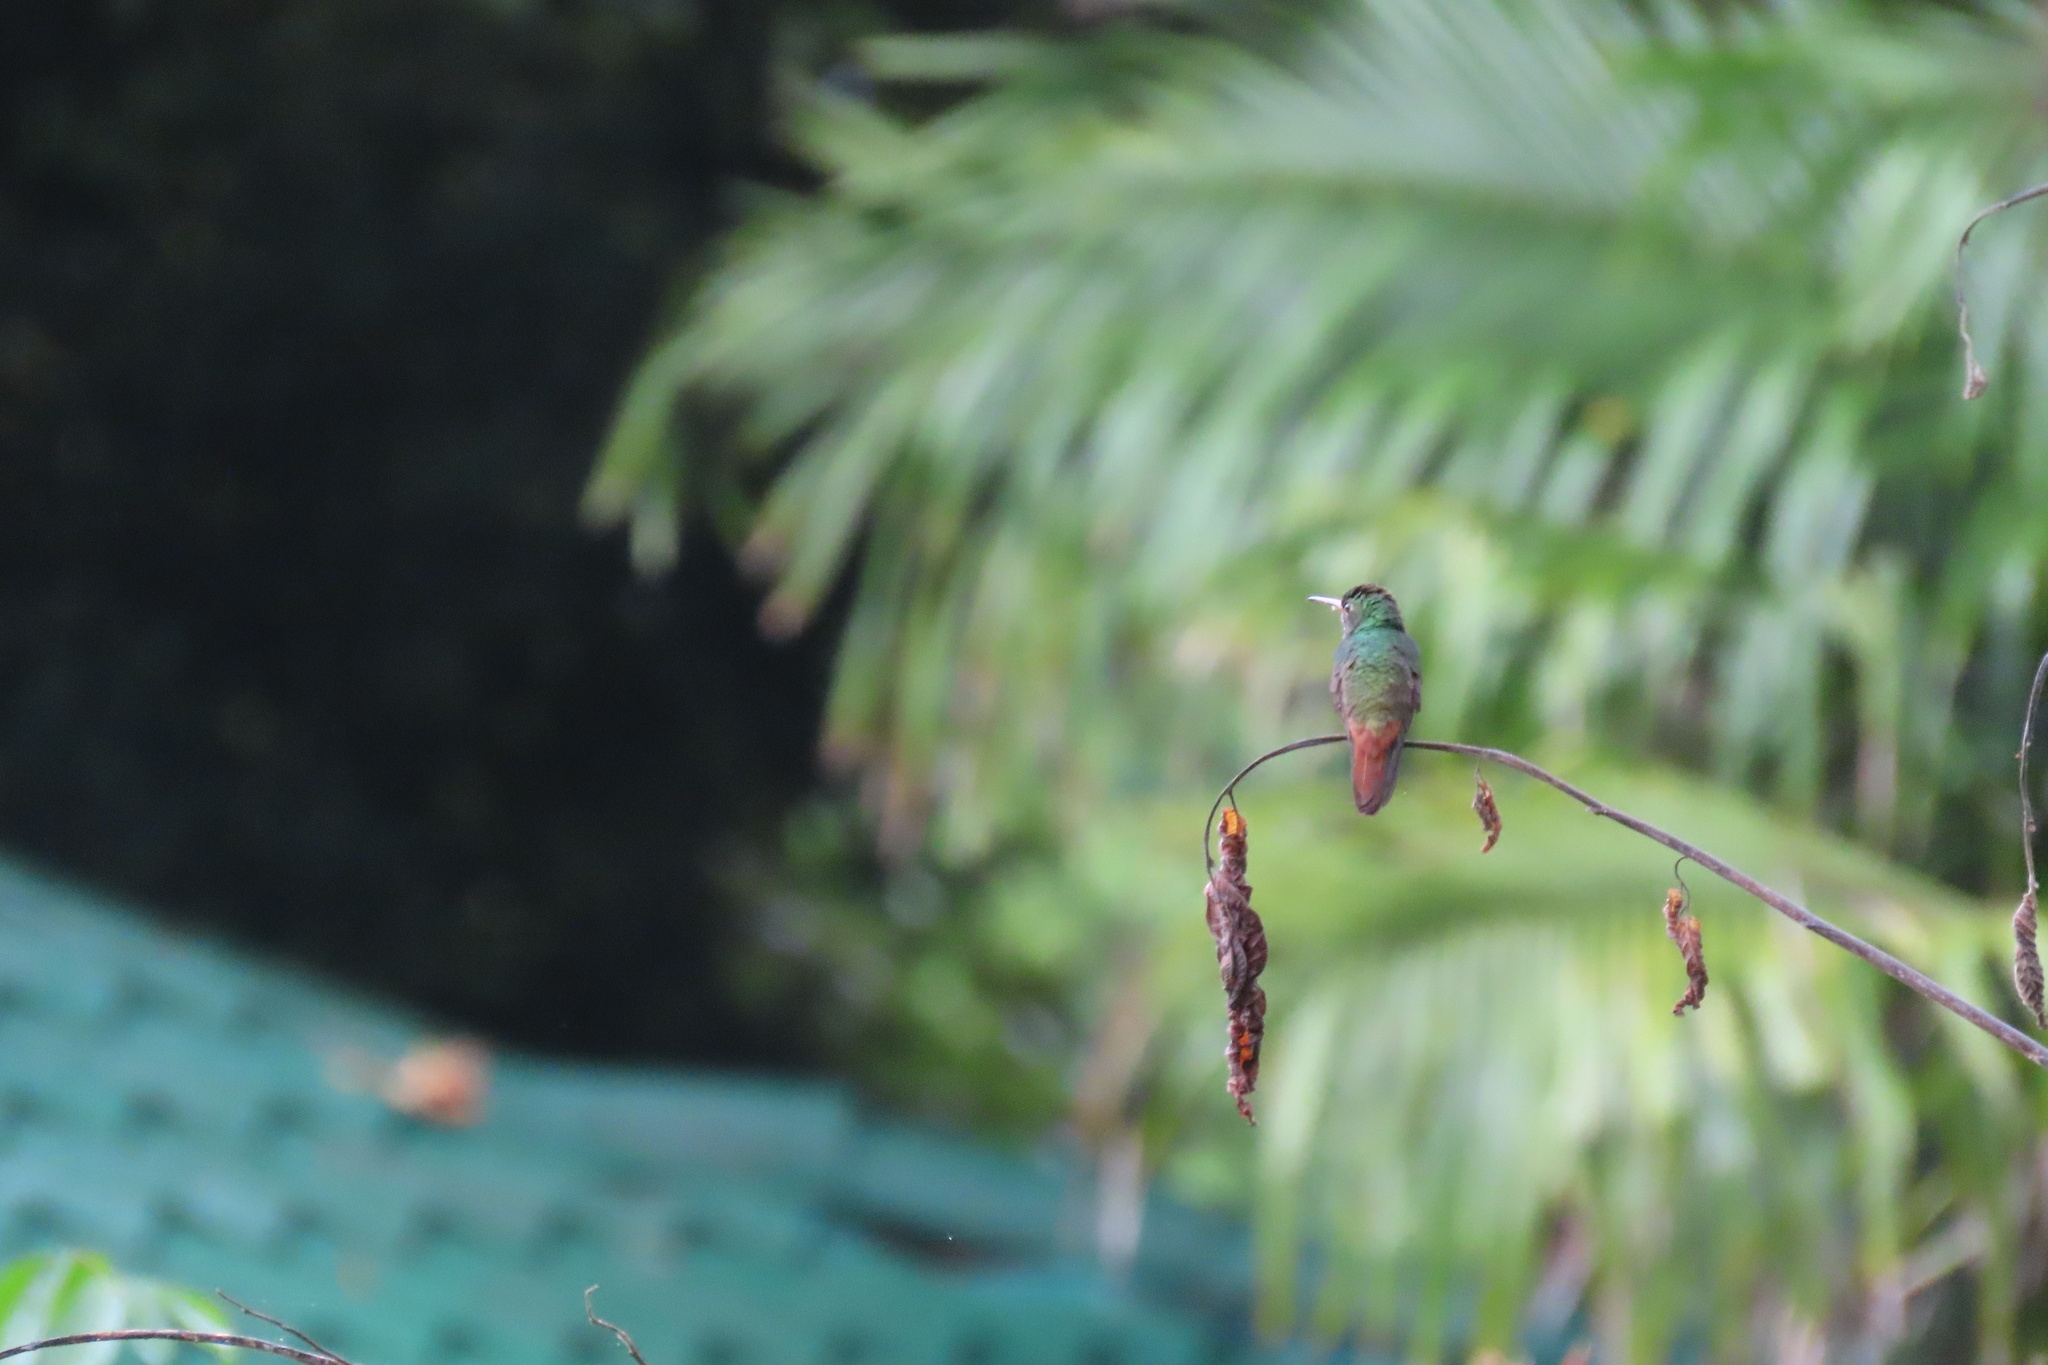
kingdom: Animalia
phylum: Chordata
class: Aves
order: Apodiformes
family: Trochilidae
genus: Amazilia
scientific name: Amazilia tzacatl
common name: Rufous-tailed hummingbird
